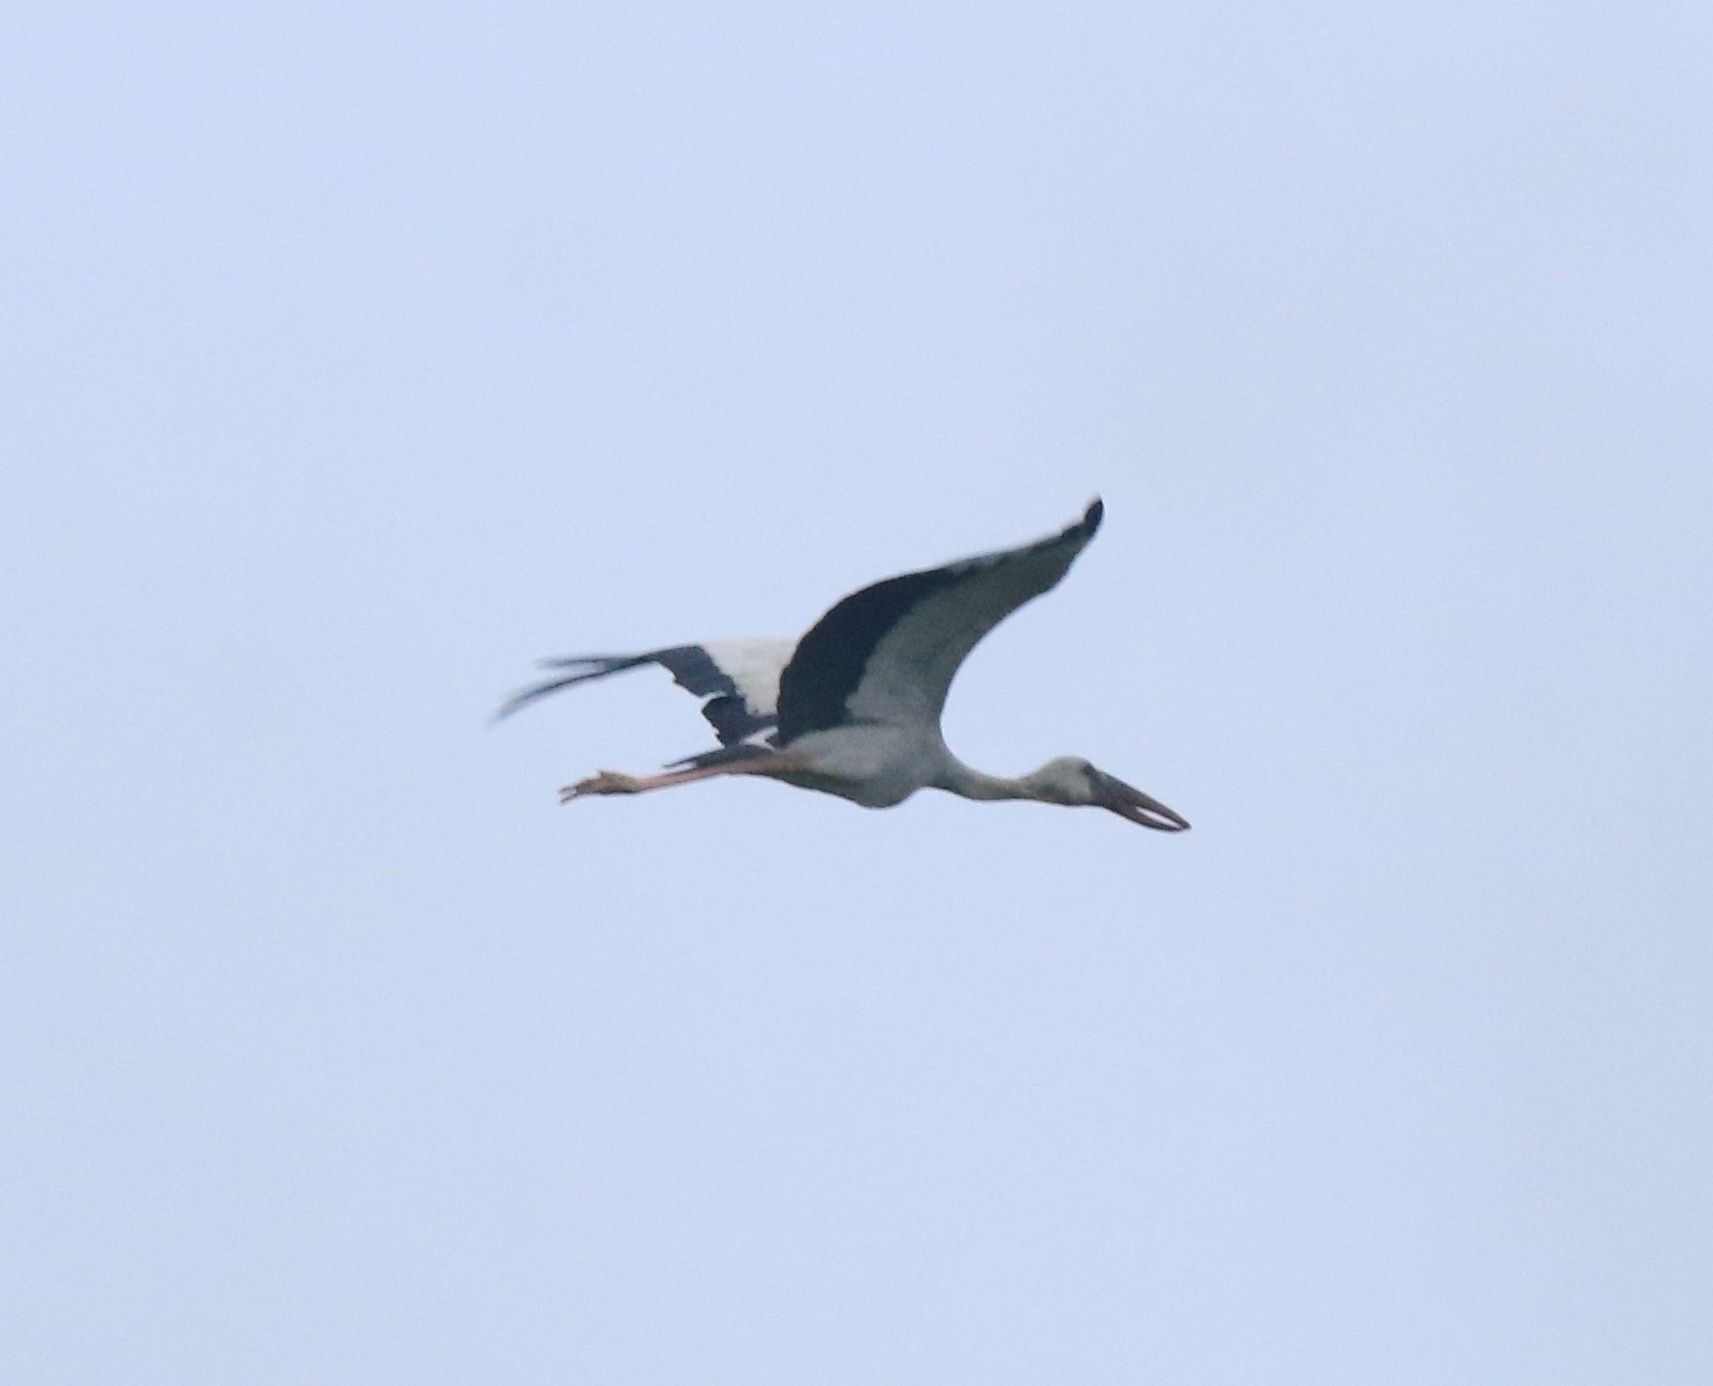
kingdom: Animalia
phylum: Chordata
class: Aves
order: Ciconiiformes
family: Ciconiidae
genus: Anastomus
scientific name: Anastomus oscitans
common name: Asian openbill
